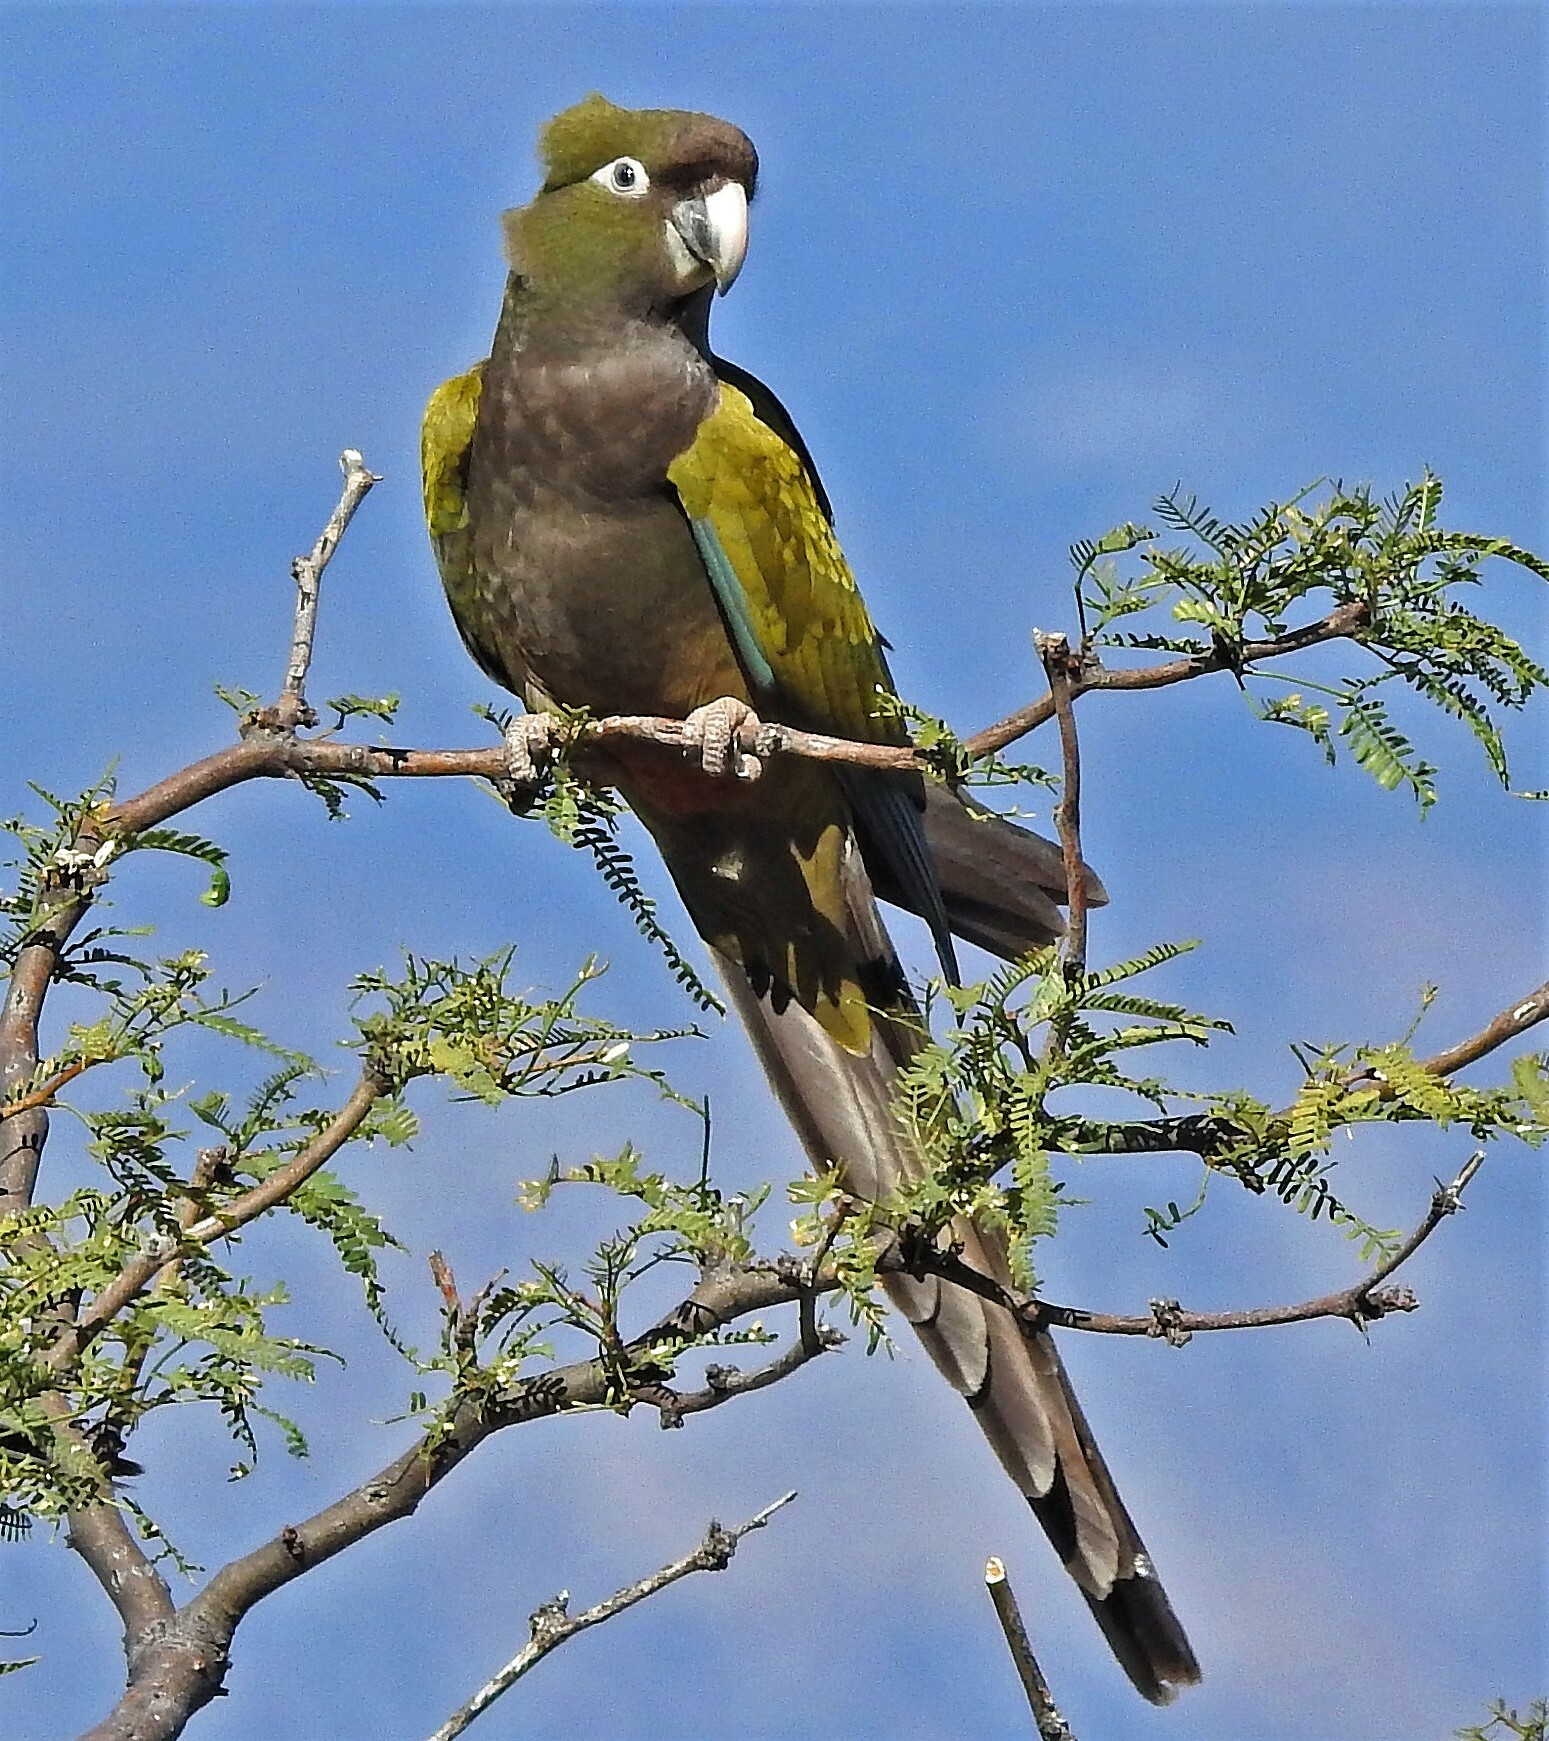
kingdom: Animalia
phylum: Chordata
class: Aves
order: Psittaciformes
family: Psittacidae
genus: Cyanoliseus
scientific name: Cyanoliseus patagonus
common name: Burrowing parrot
